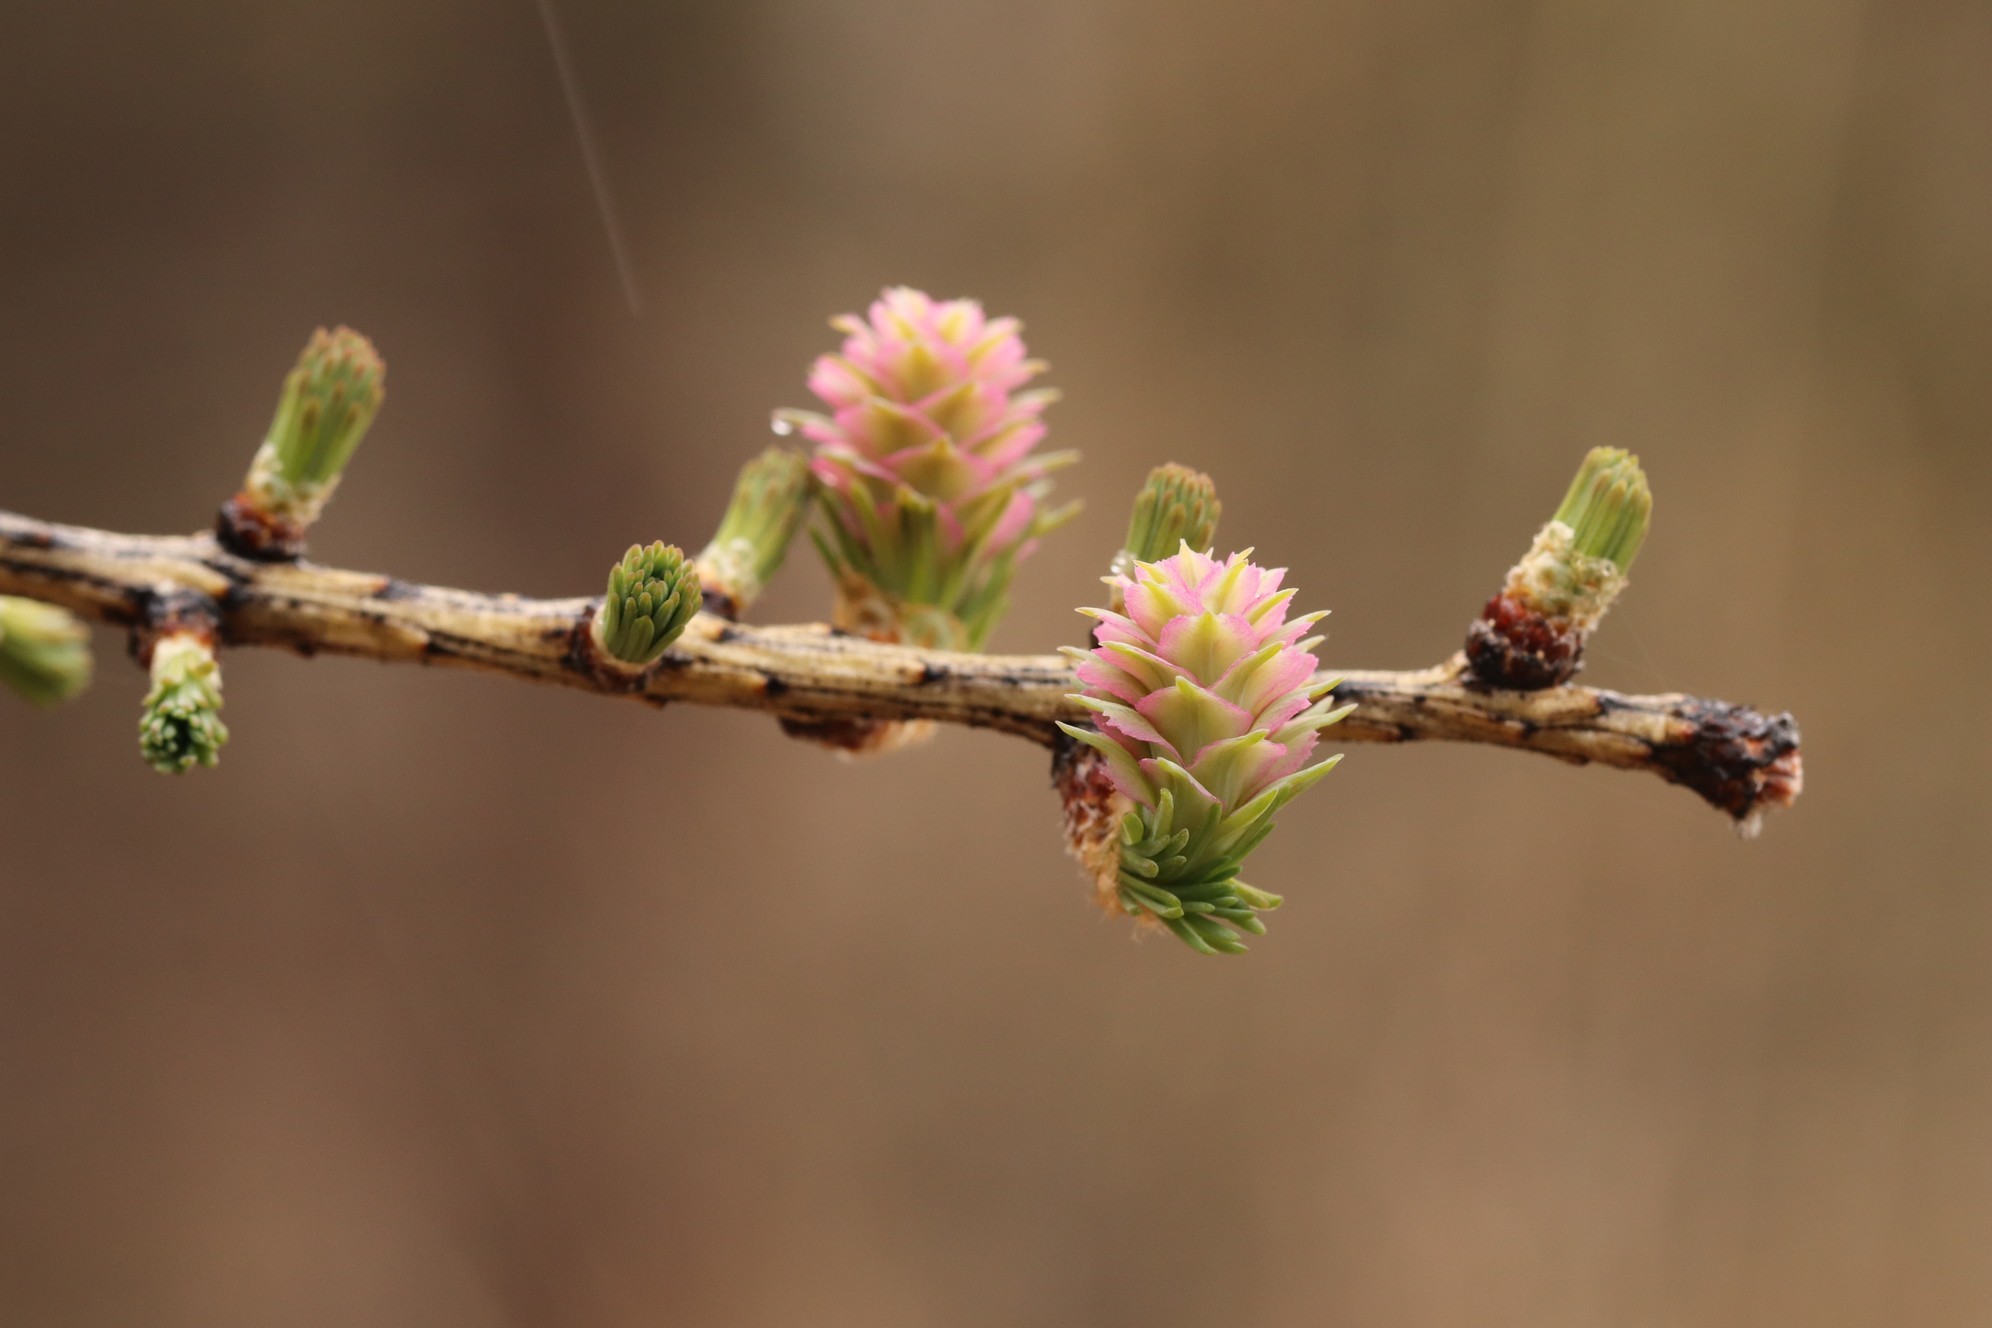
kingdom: Plantae
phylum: Tracheophyta
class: Pinopsida
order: Pinales
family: Pinaceae
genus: Larix
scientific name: Larix sibirica
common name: Siberian larch
